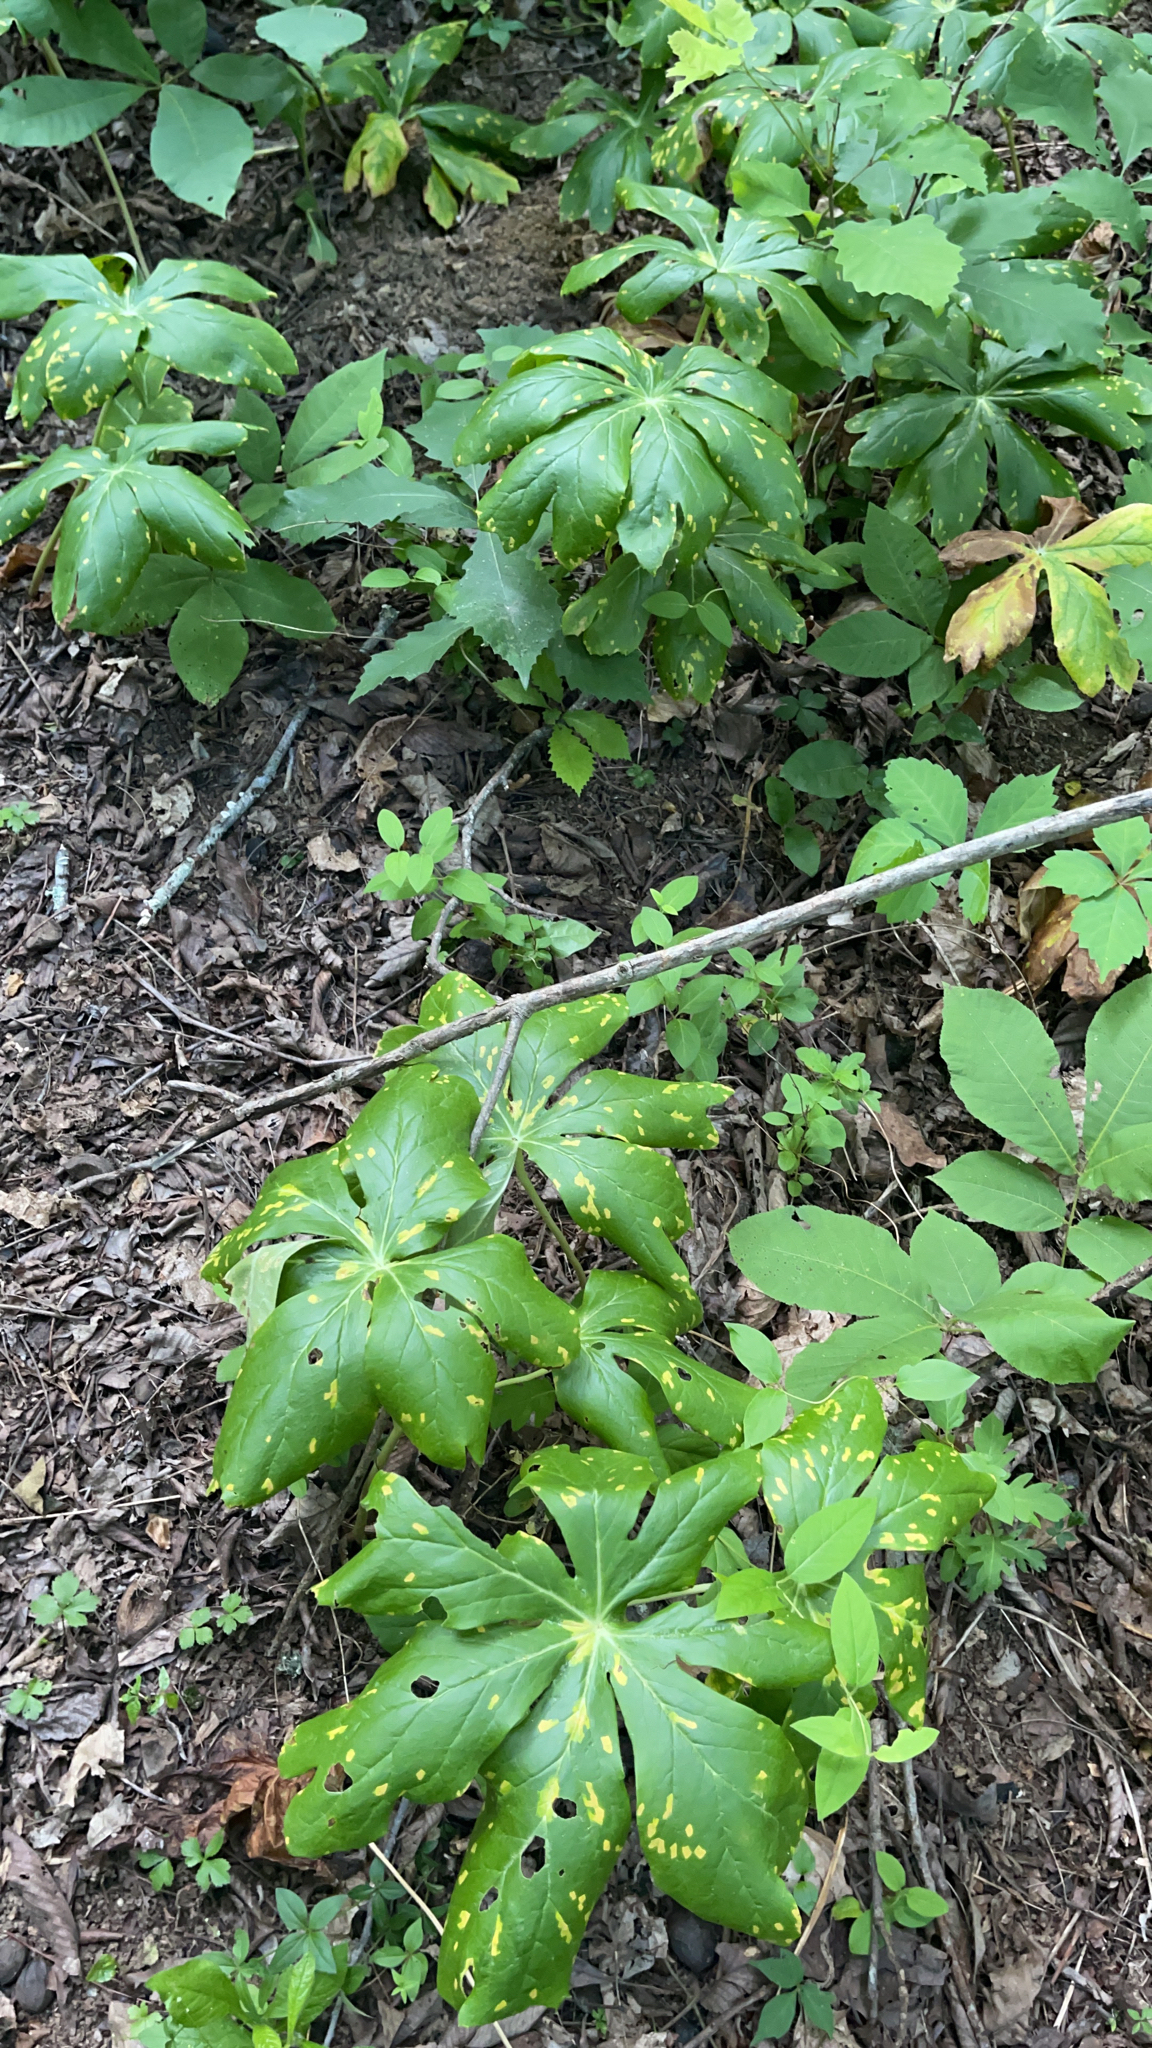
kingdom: Fungi
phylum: Basidiomycota
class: Pucciniomycetes
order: Pucciniales
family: Pucciniaceae
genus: Puccinia
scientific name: Puccinia podophylli
